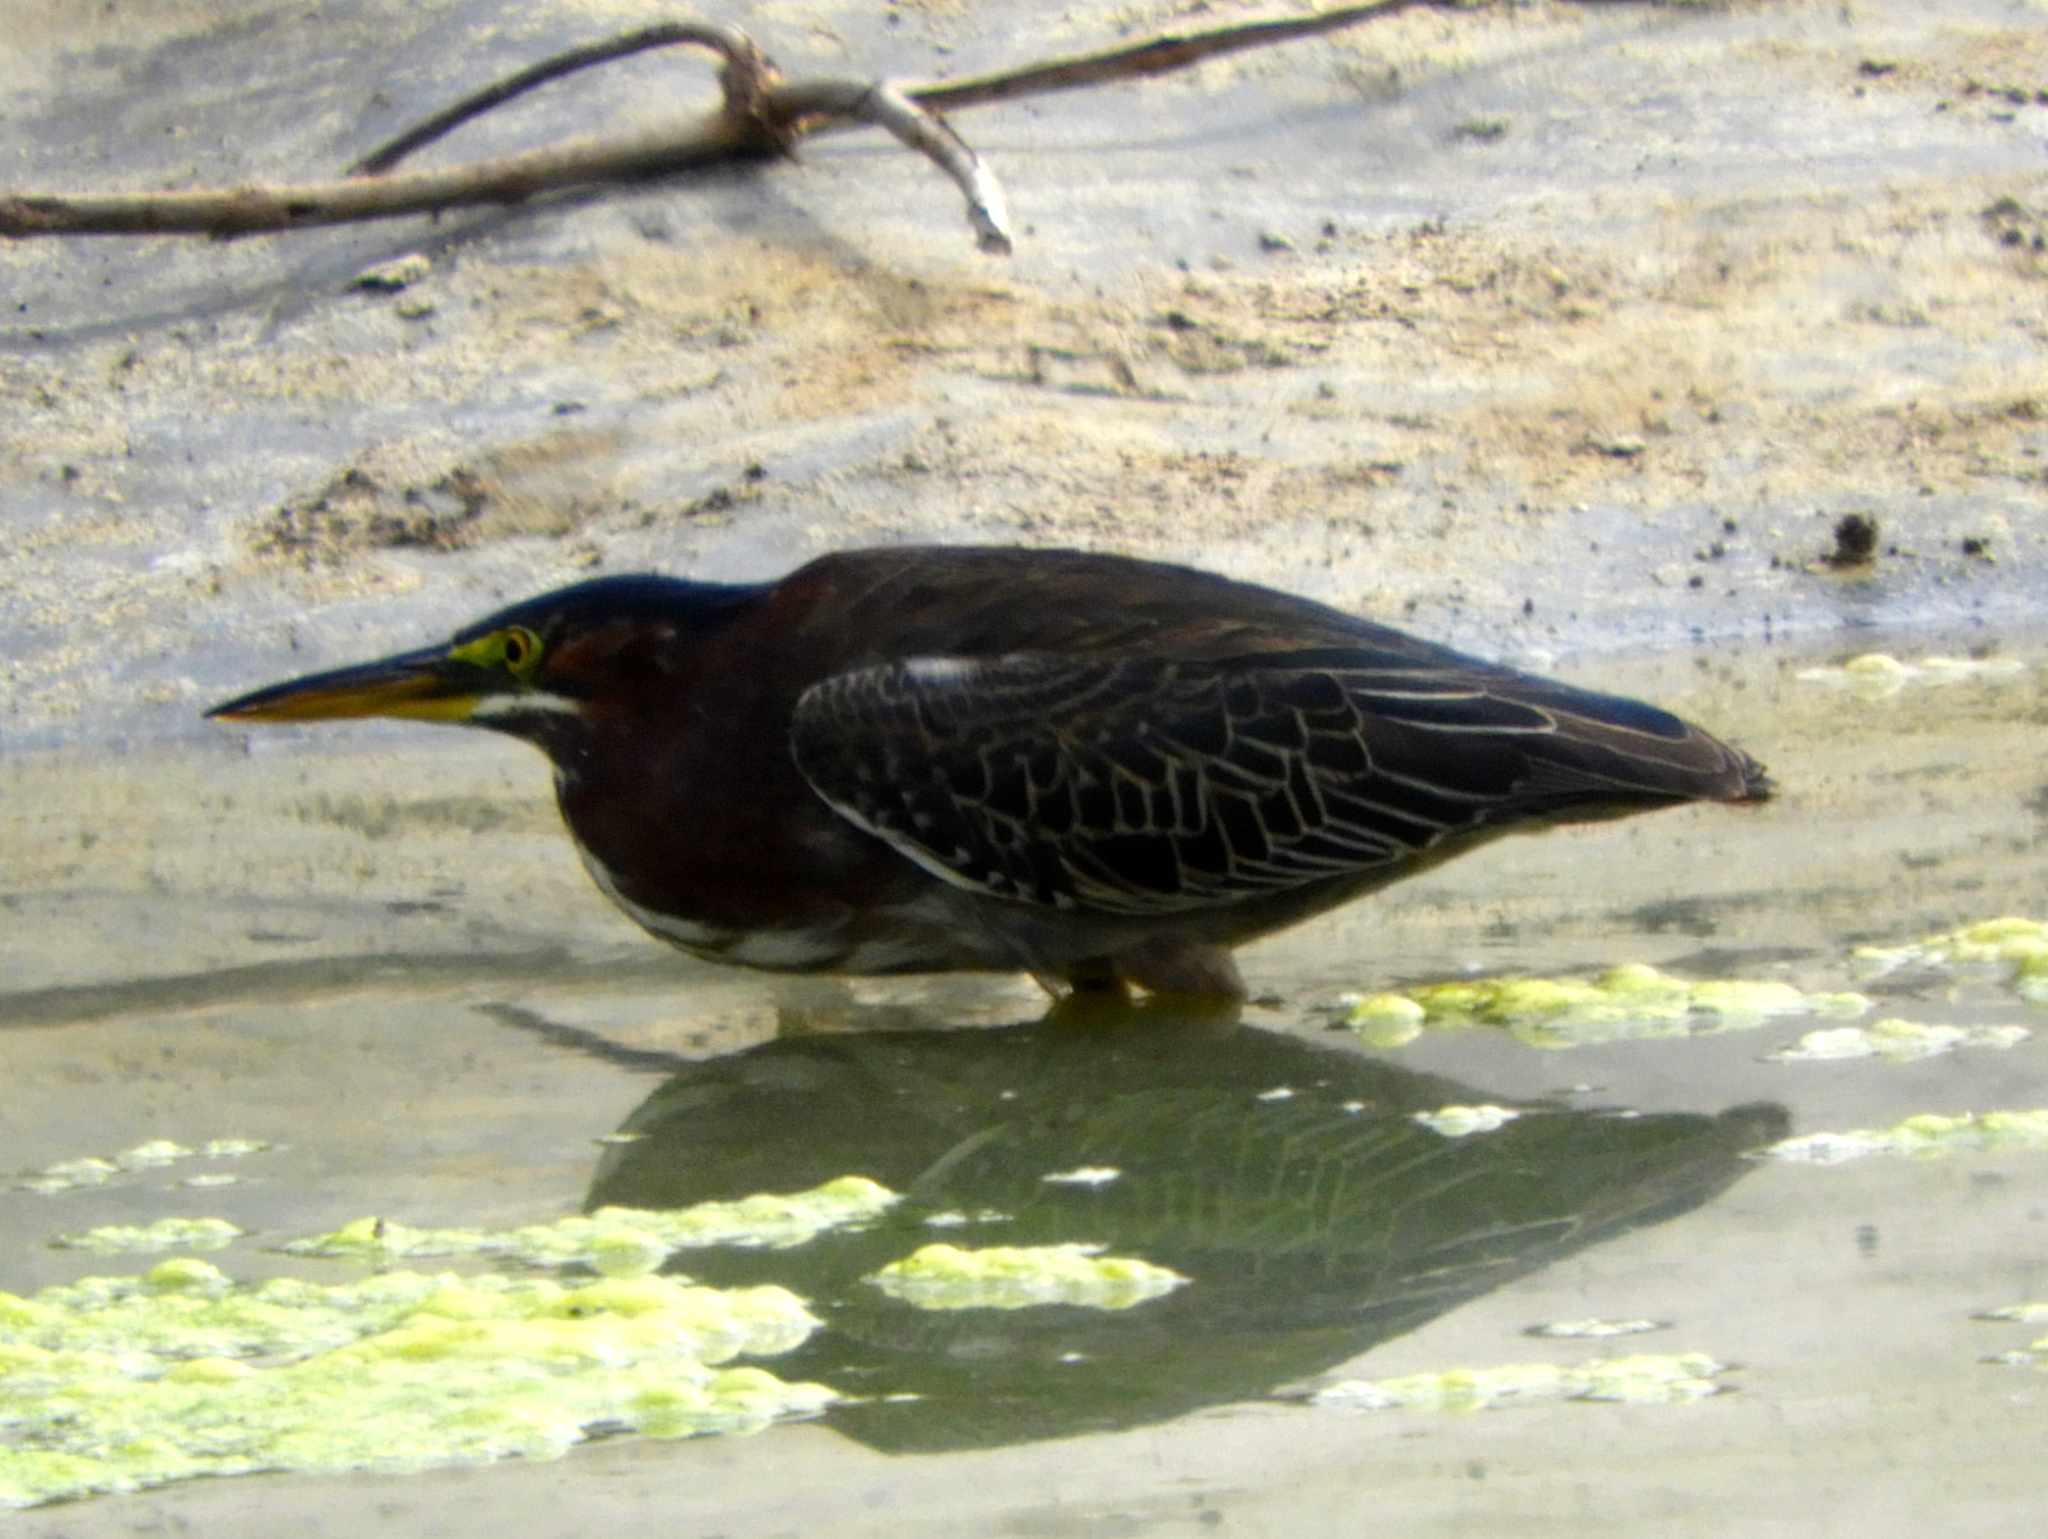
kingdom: Animalia
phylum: Chordata
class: Aves
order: Pelecaniformes
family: Ardeidae
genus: Butorides
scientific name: Butorides virescens
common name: Green heron
